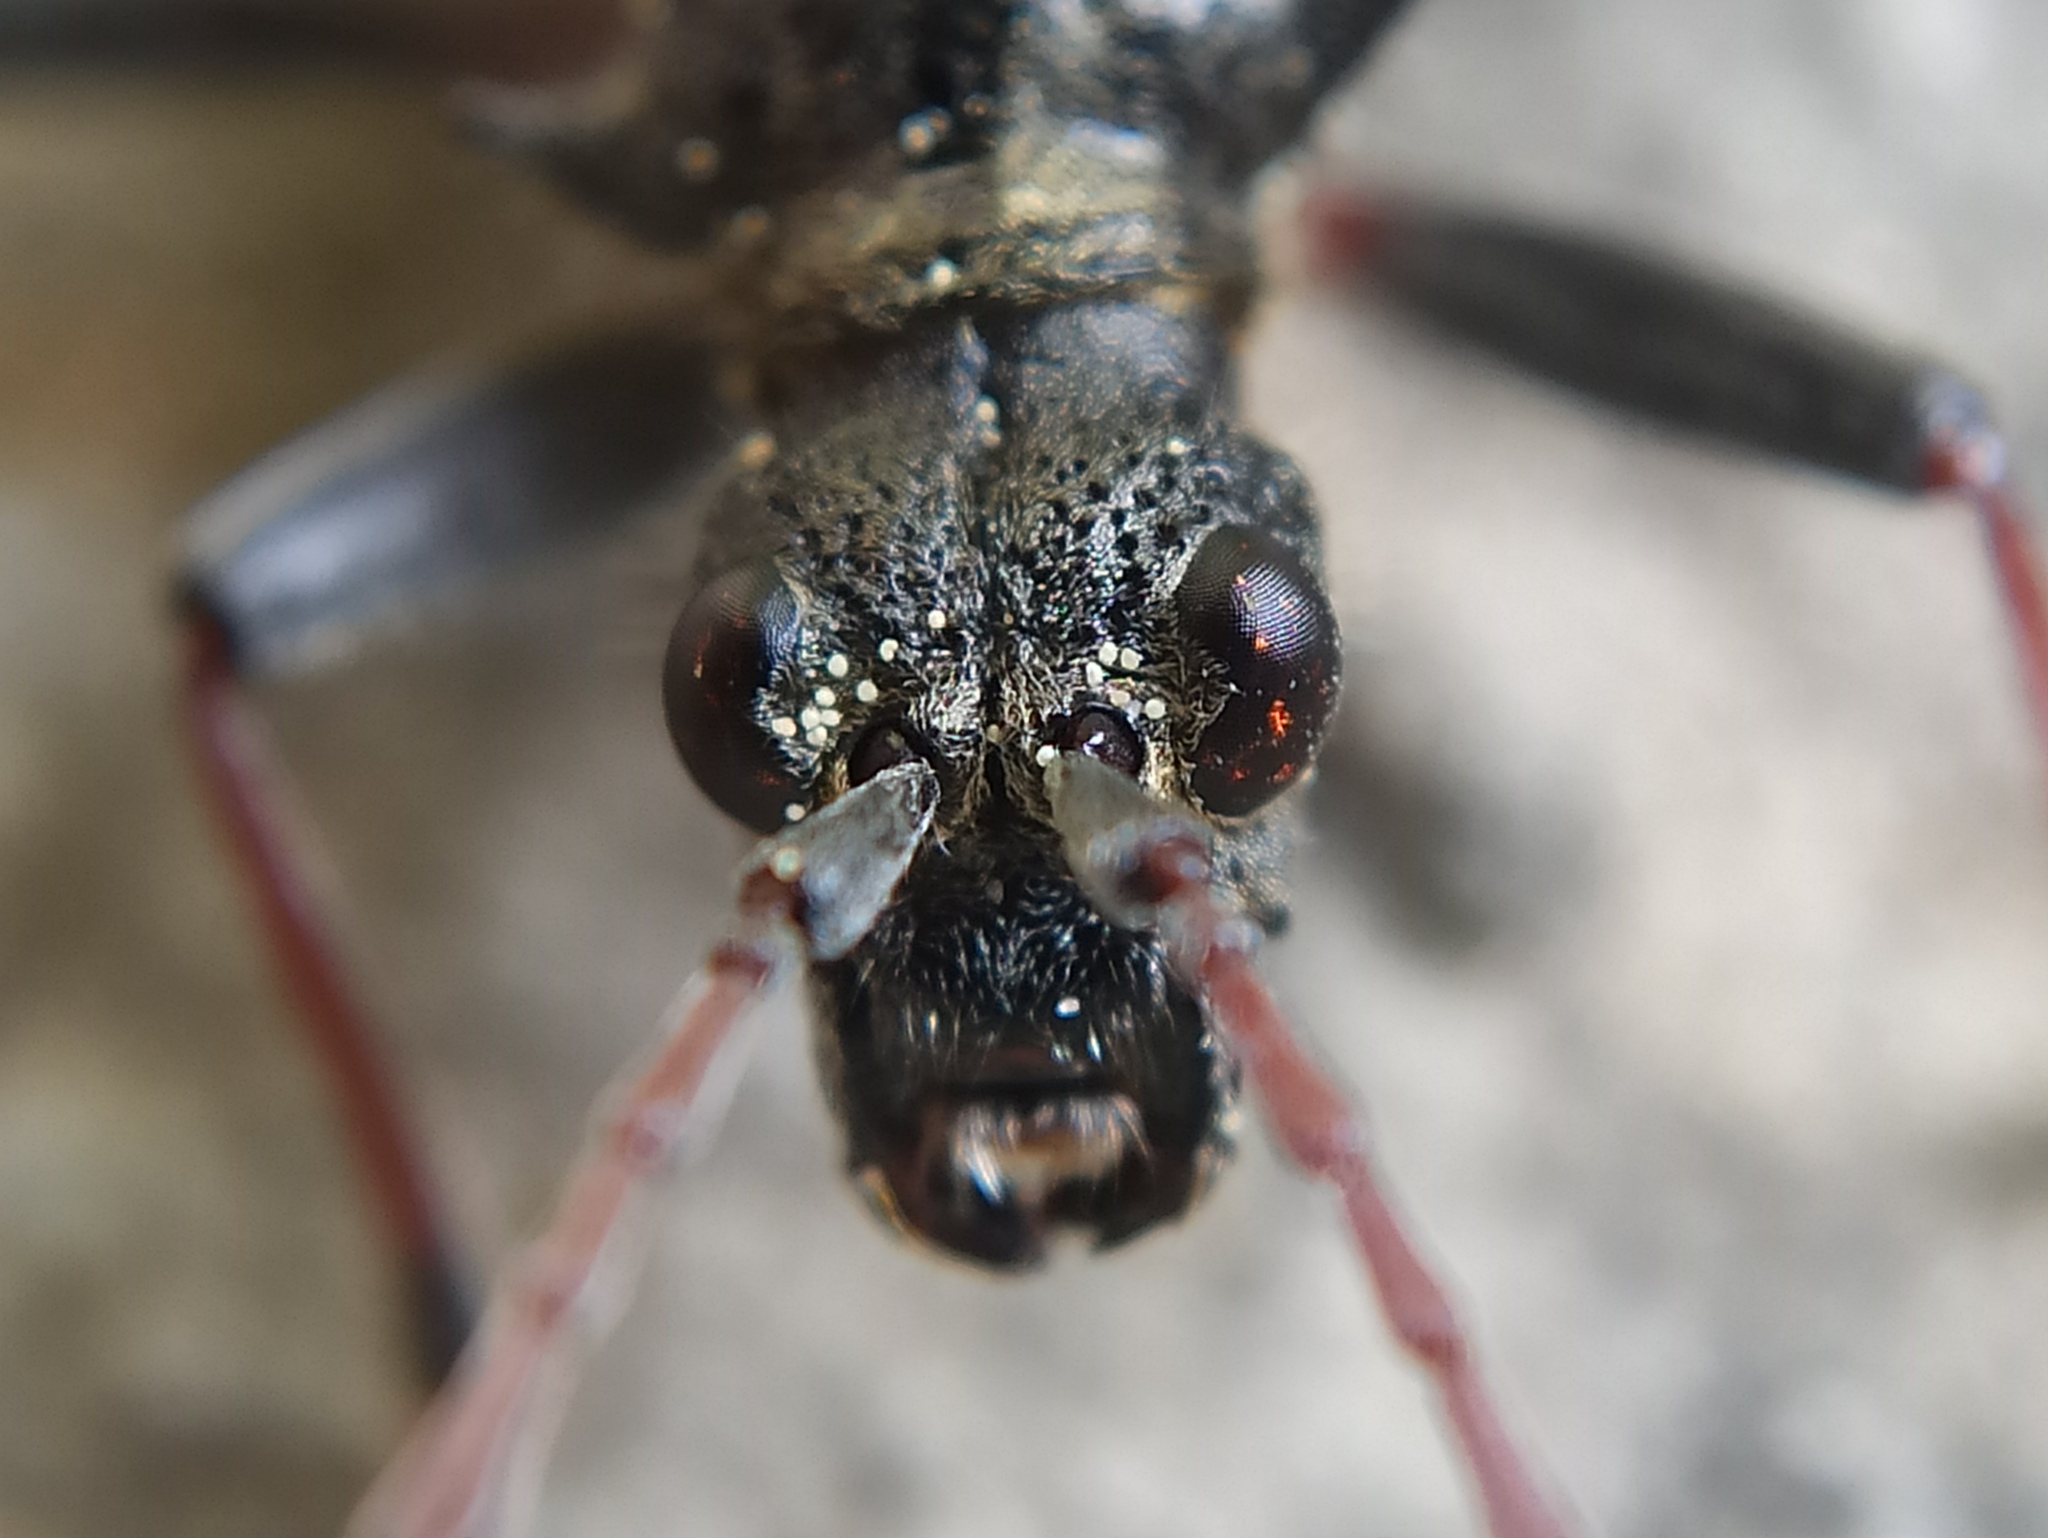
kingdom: Animalia
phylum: Arthropoda
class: Insecta
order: Coleoptera
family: Cerambycidae
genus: Rhagium
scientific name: Rhagium bifasciatum
